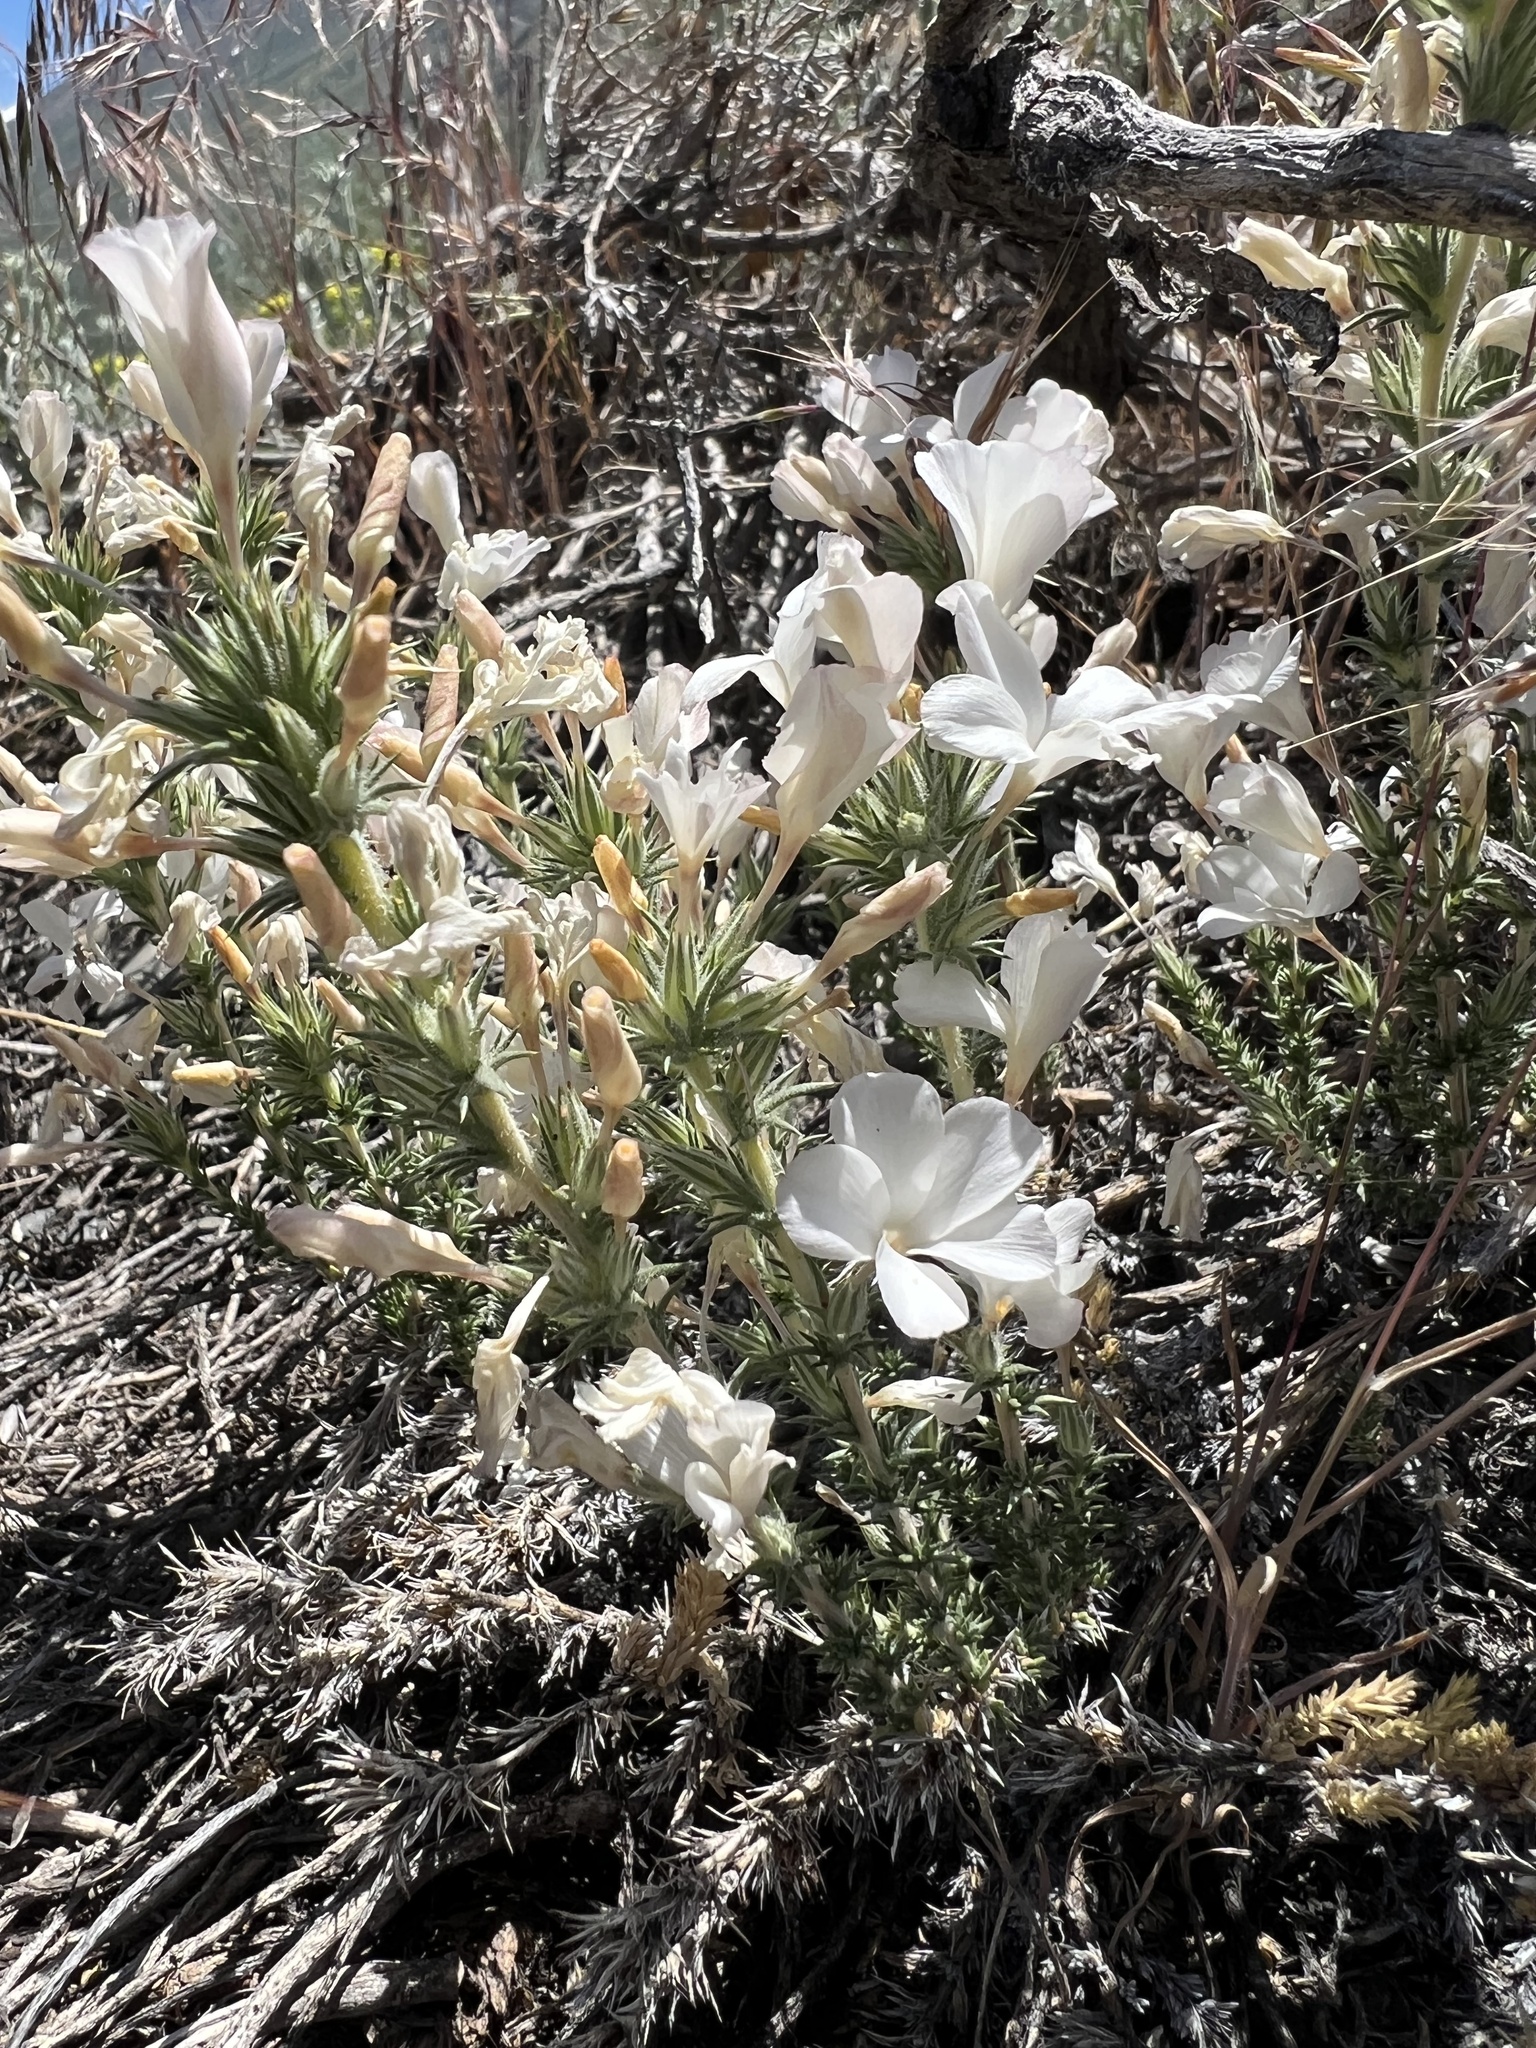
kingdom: Plantae
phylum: Tracheophyta
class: Magnoliopsida
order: Ericales
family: Polemoniaceae
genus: Linanthus
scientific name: Linanthus pungens
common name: Granite prickly phlox
